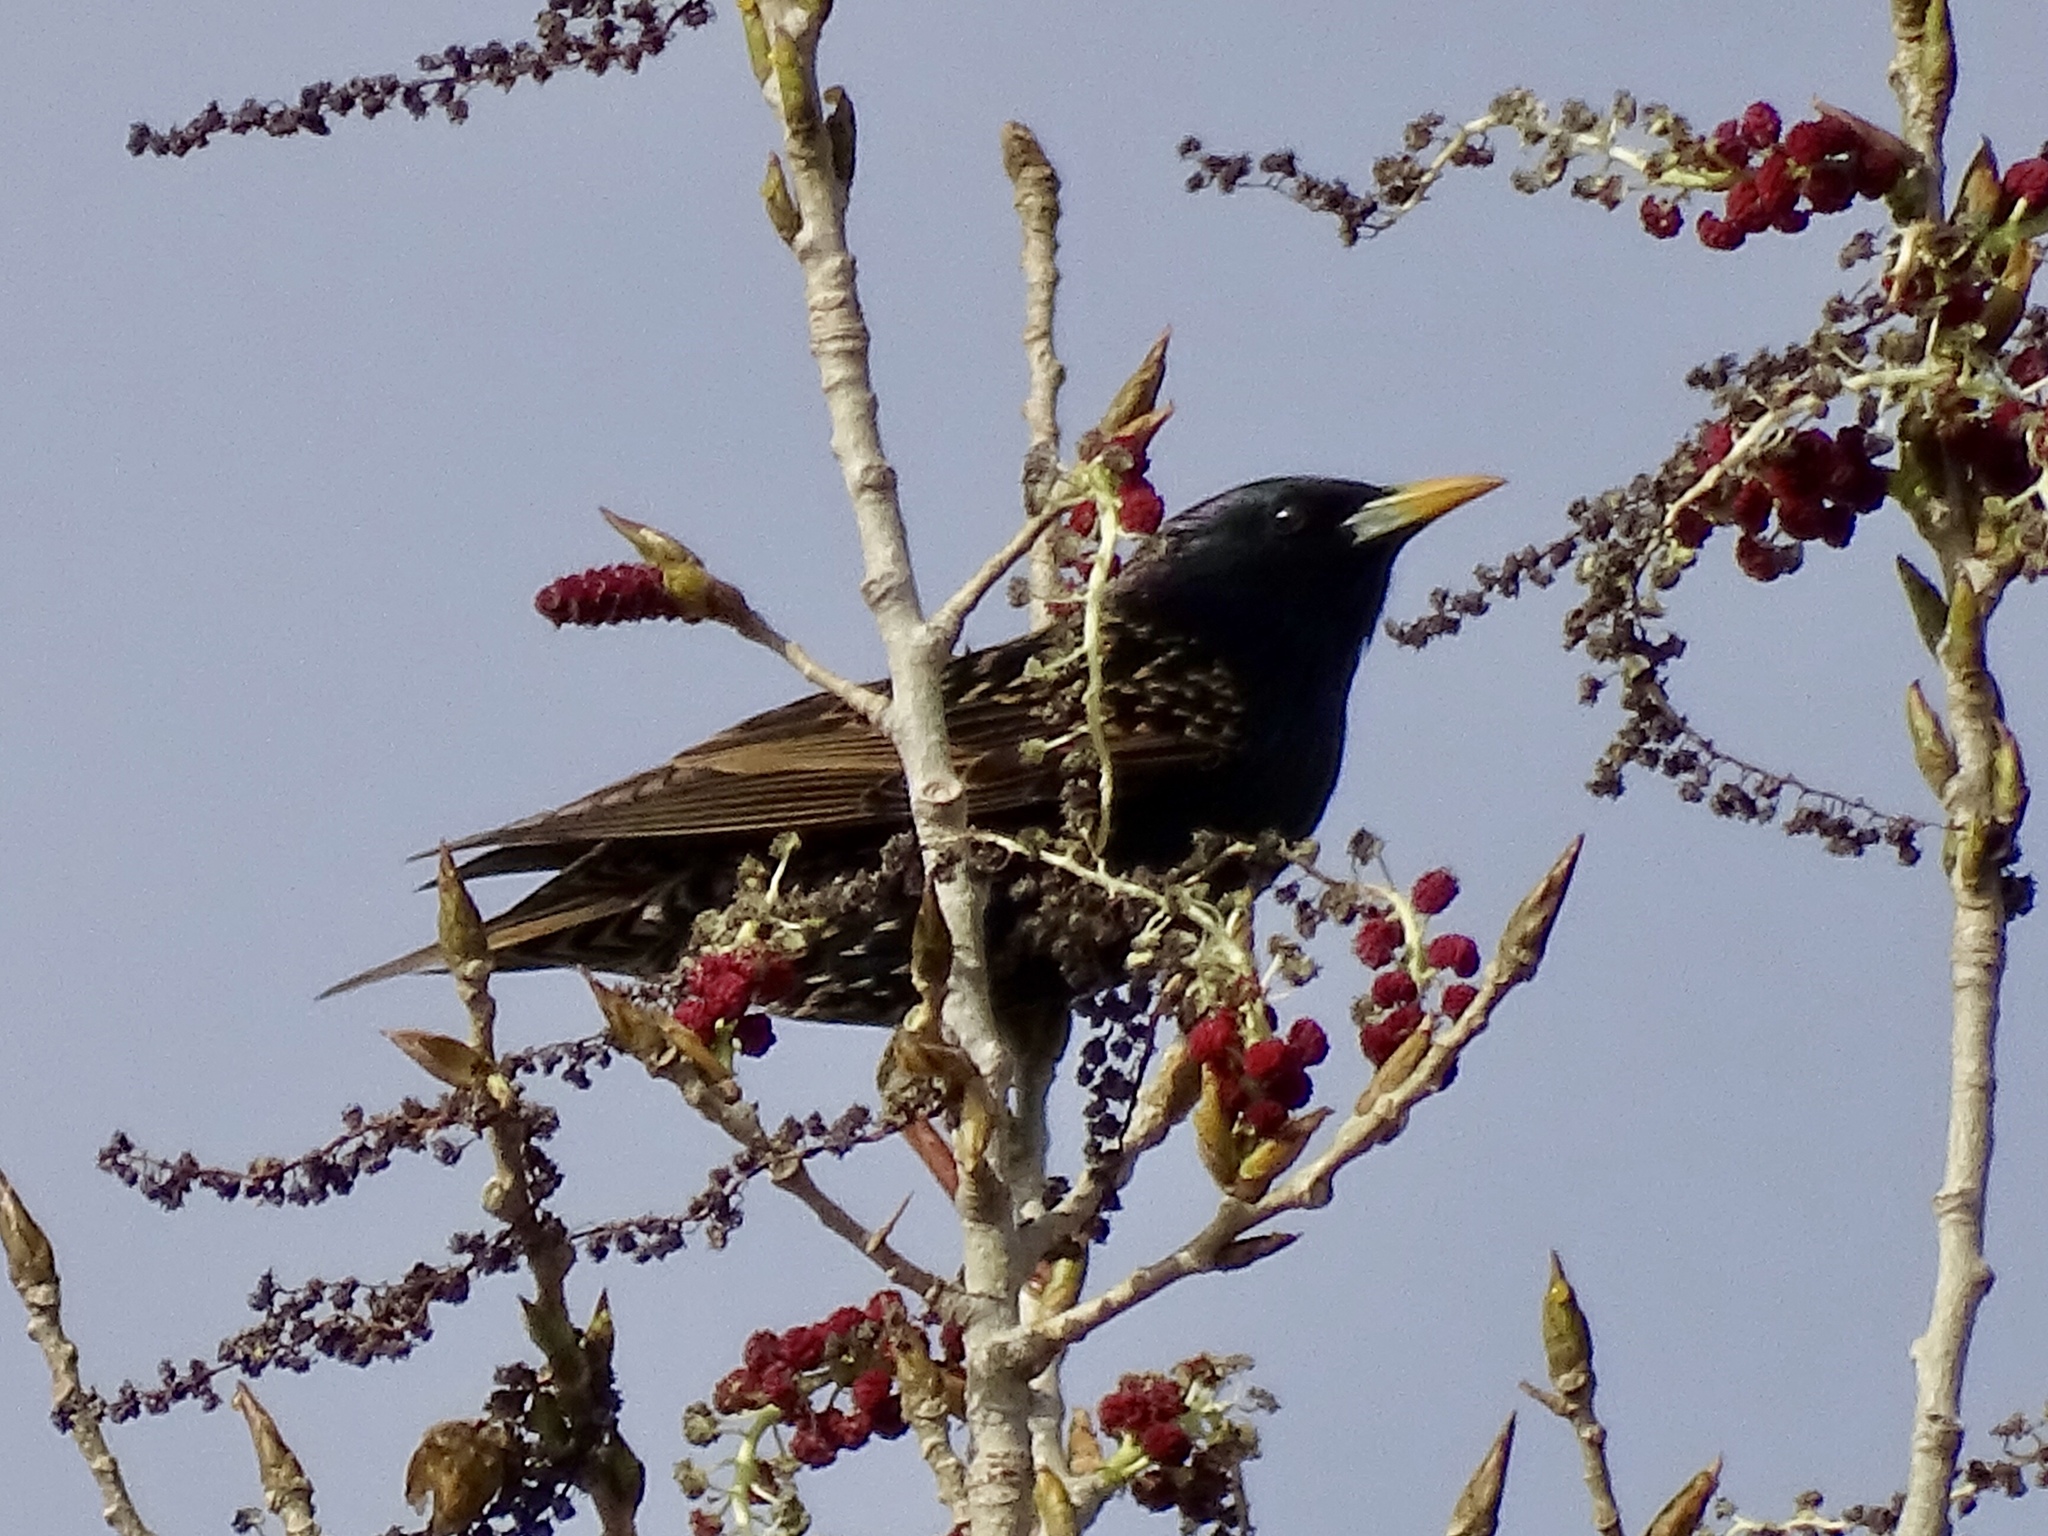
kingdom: Animalia
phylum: Chordata
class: Aves
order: Passeriformes
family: Sturnidae
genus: Sturnus
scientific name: Sturnus vulgaris
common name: Common starling
